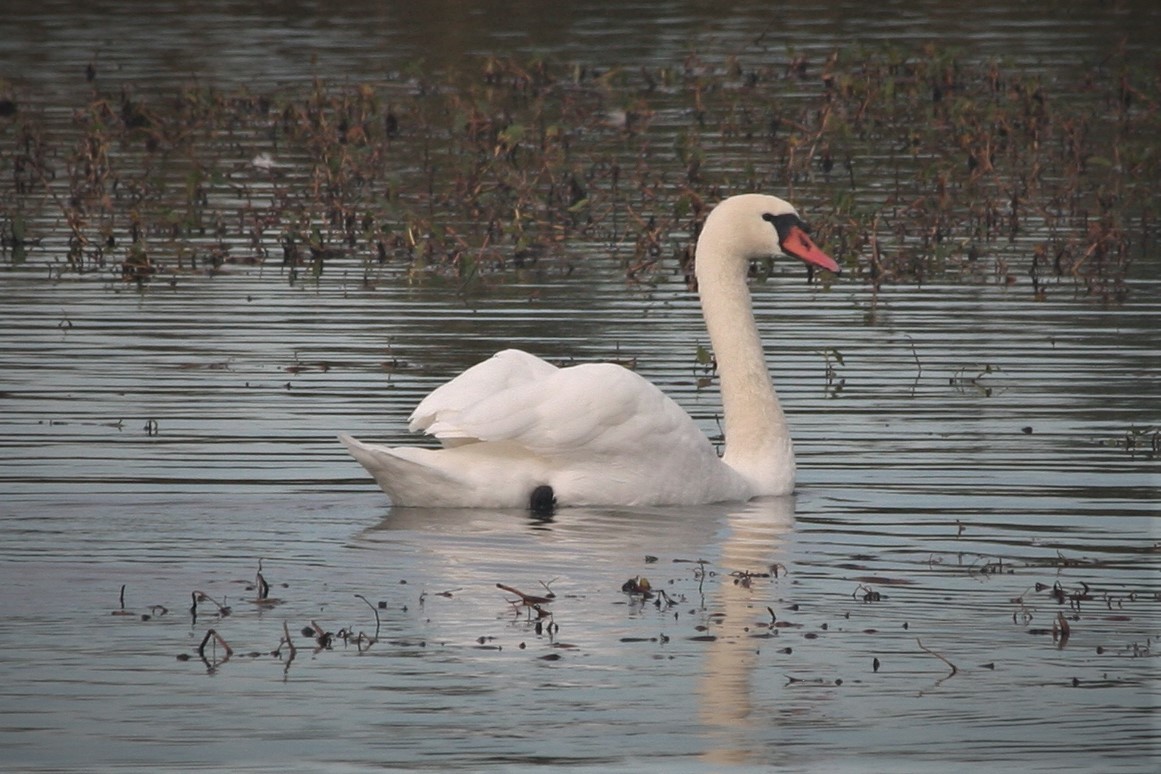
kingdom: Animalia
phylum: Chordata
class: Aves
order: Anseriformes
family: Anatidae
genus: Cygnus
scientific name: Cygnus olor
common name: Mute swan
